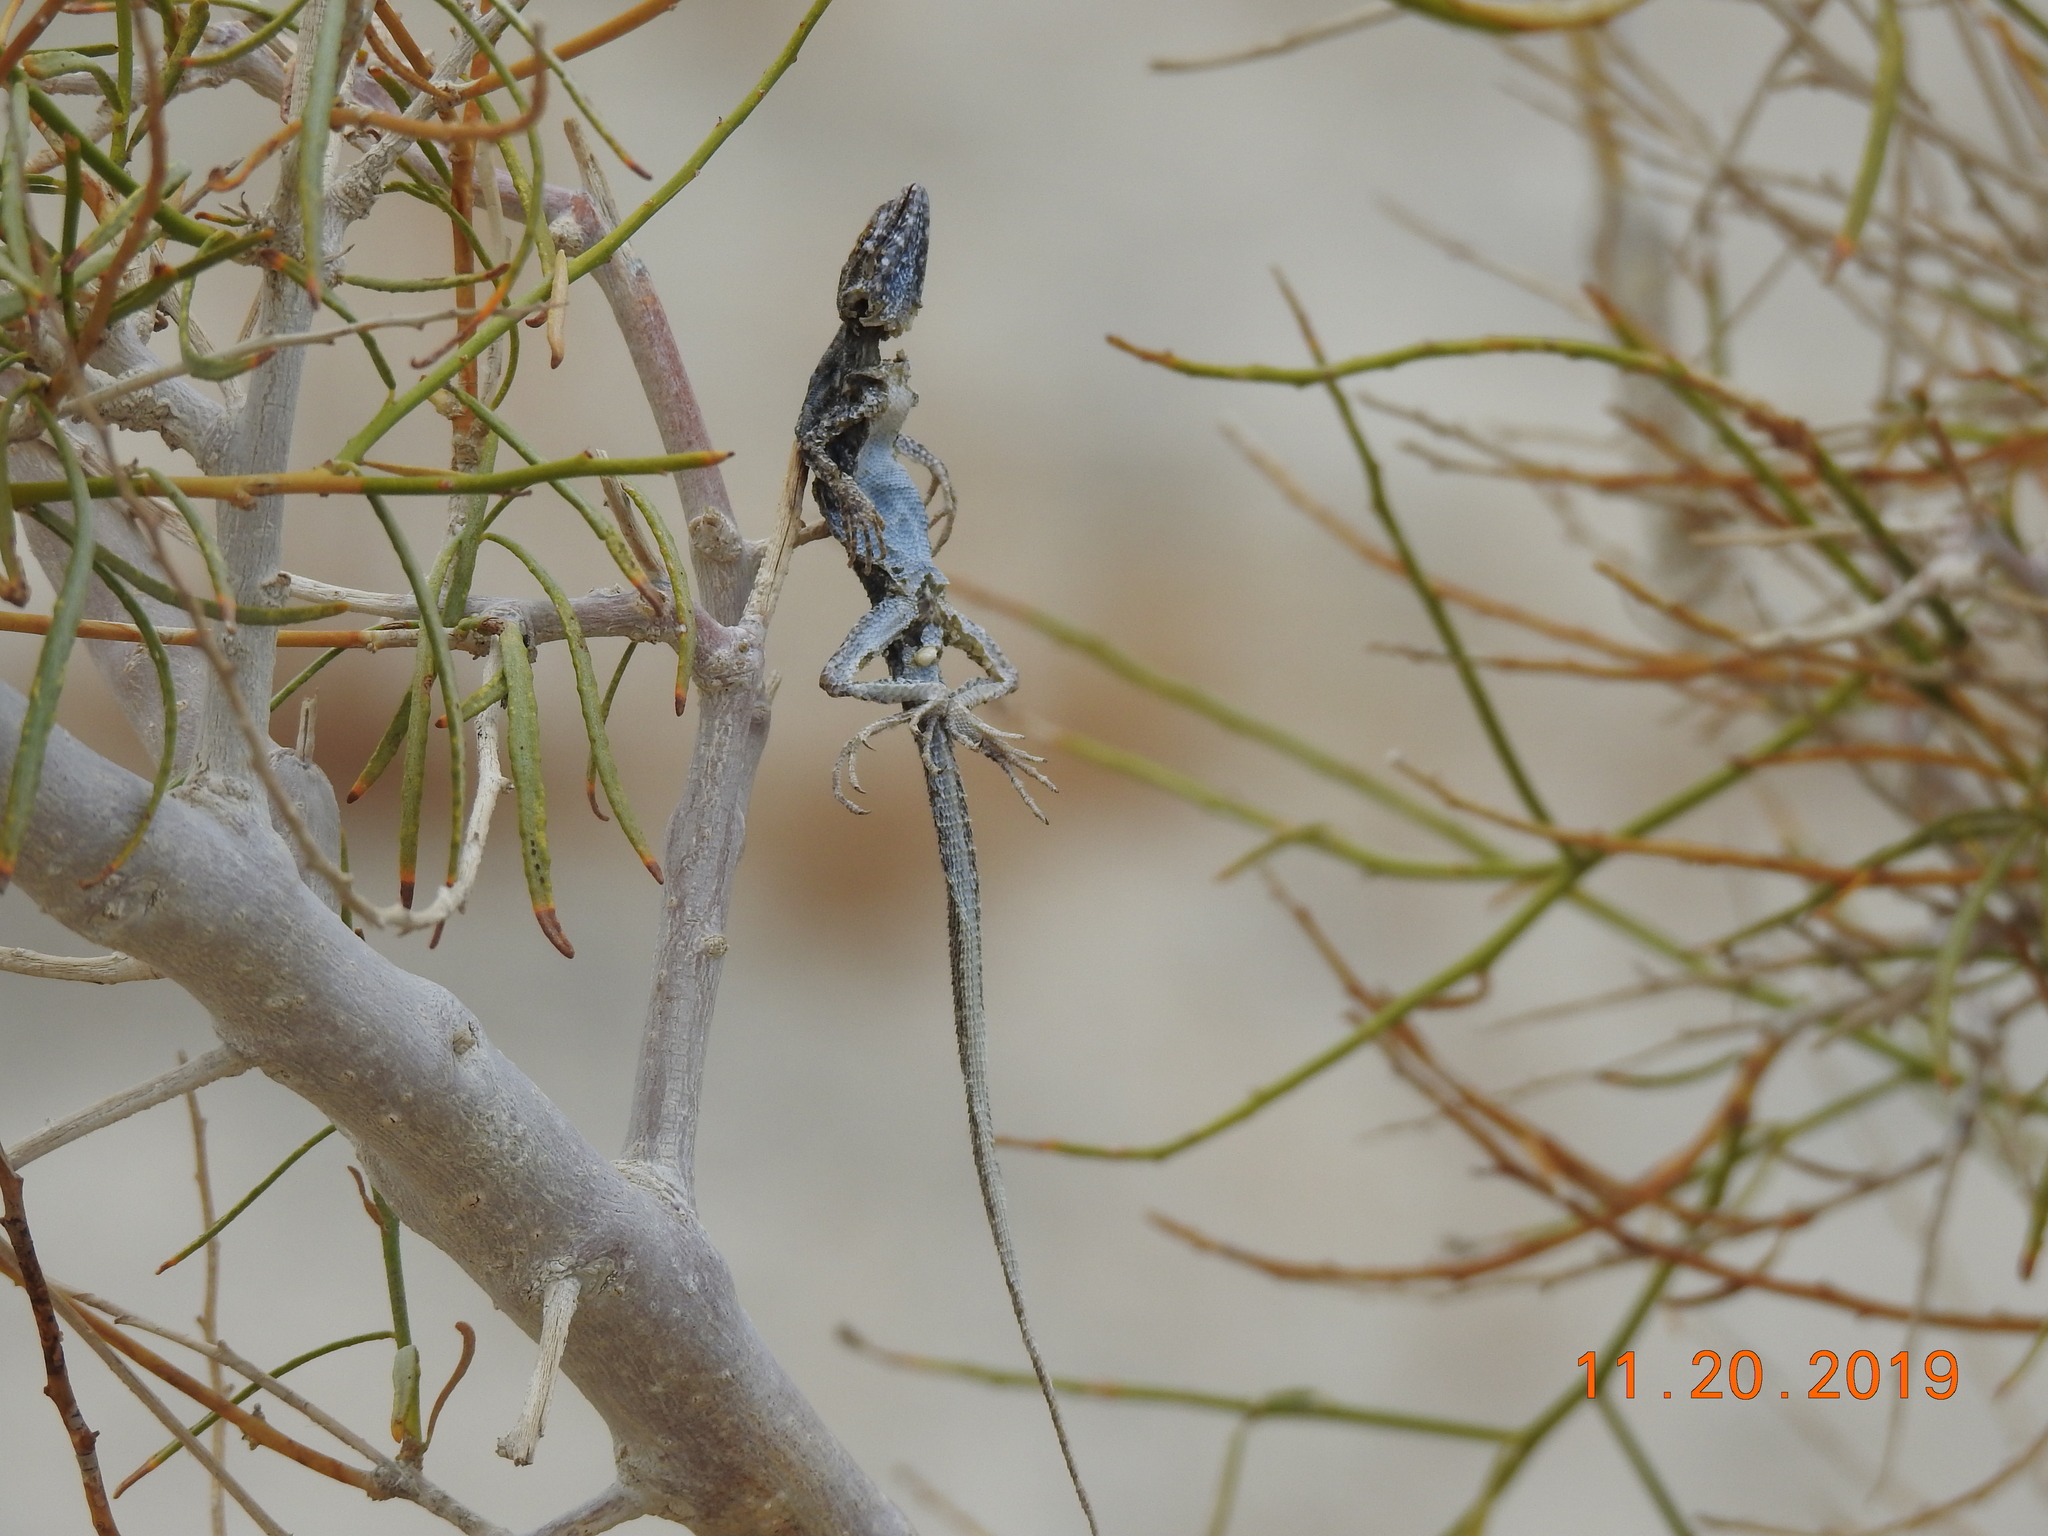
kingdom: Animalia
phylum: Chordata
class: Aves
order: Passeriformes
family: Laniidae
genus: Lanius
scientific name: Lanius ludovicianus
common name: Loggerhead shrike
